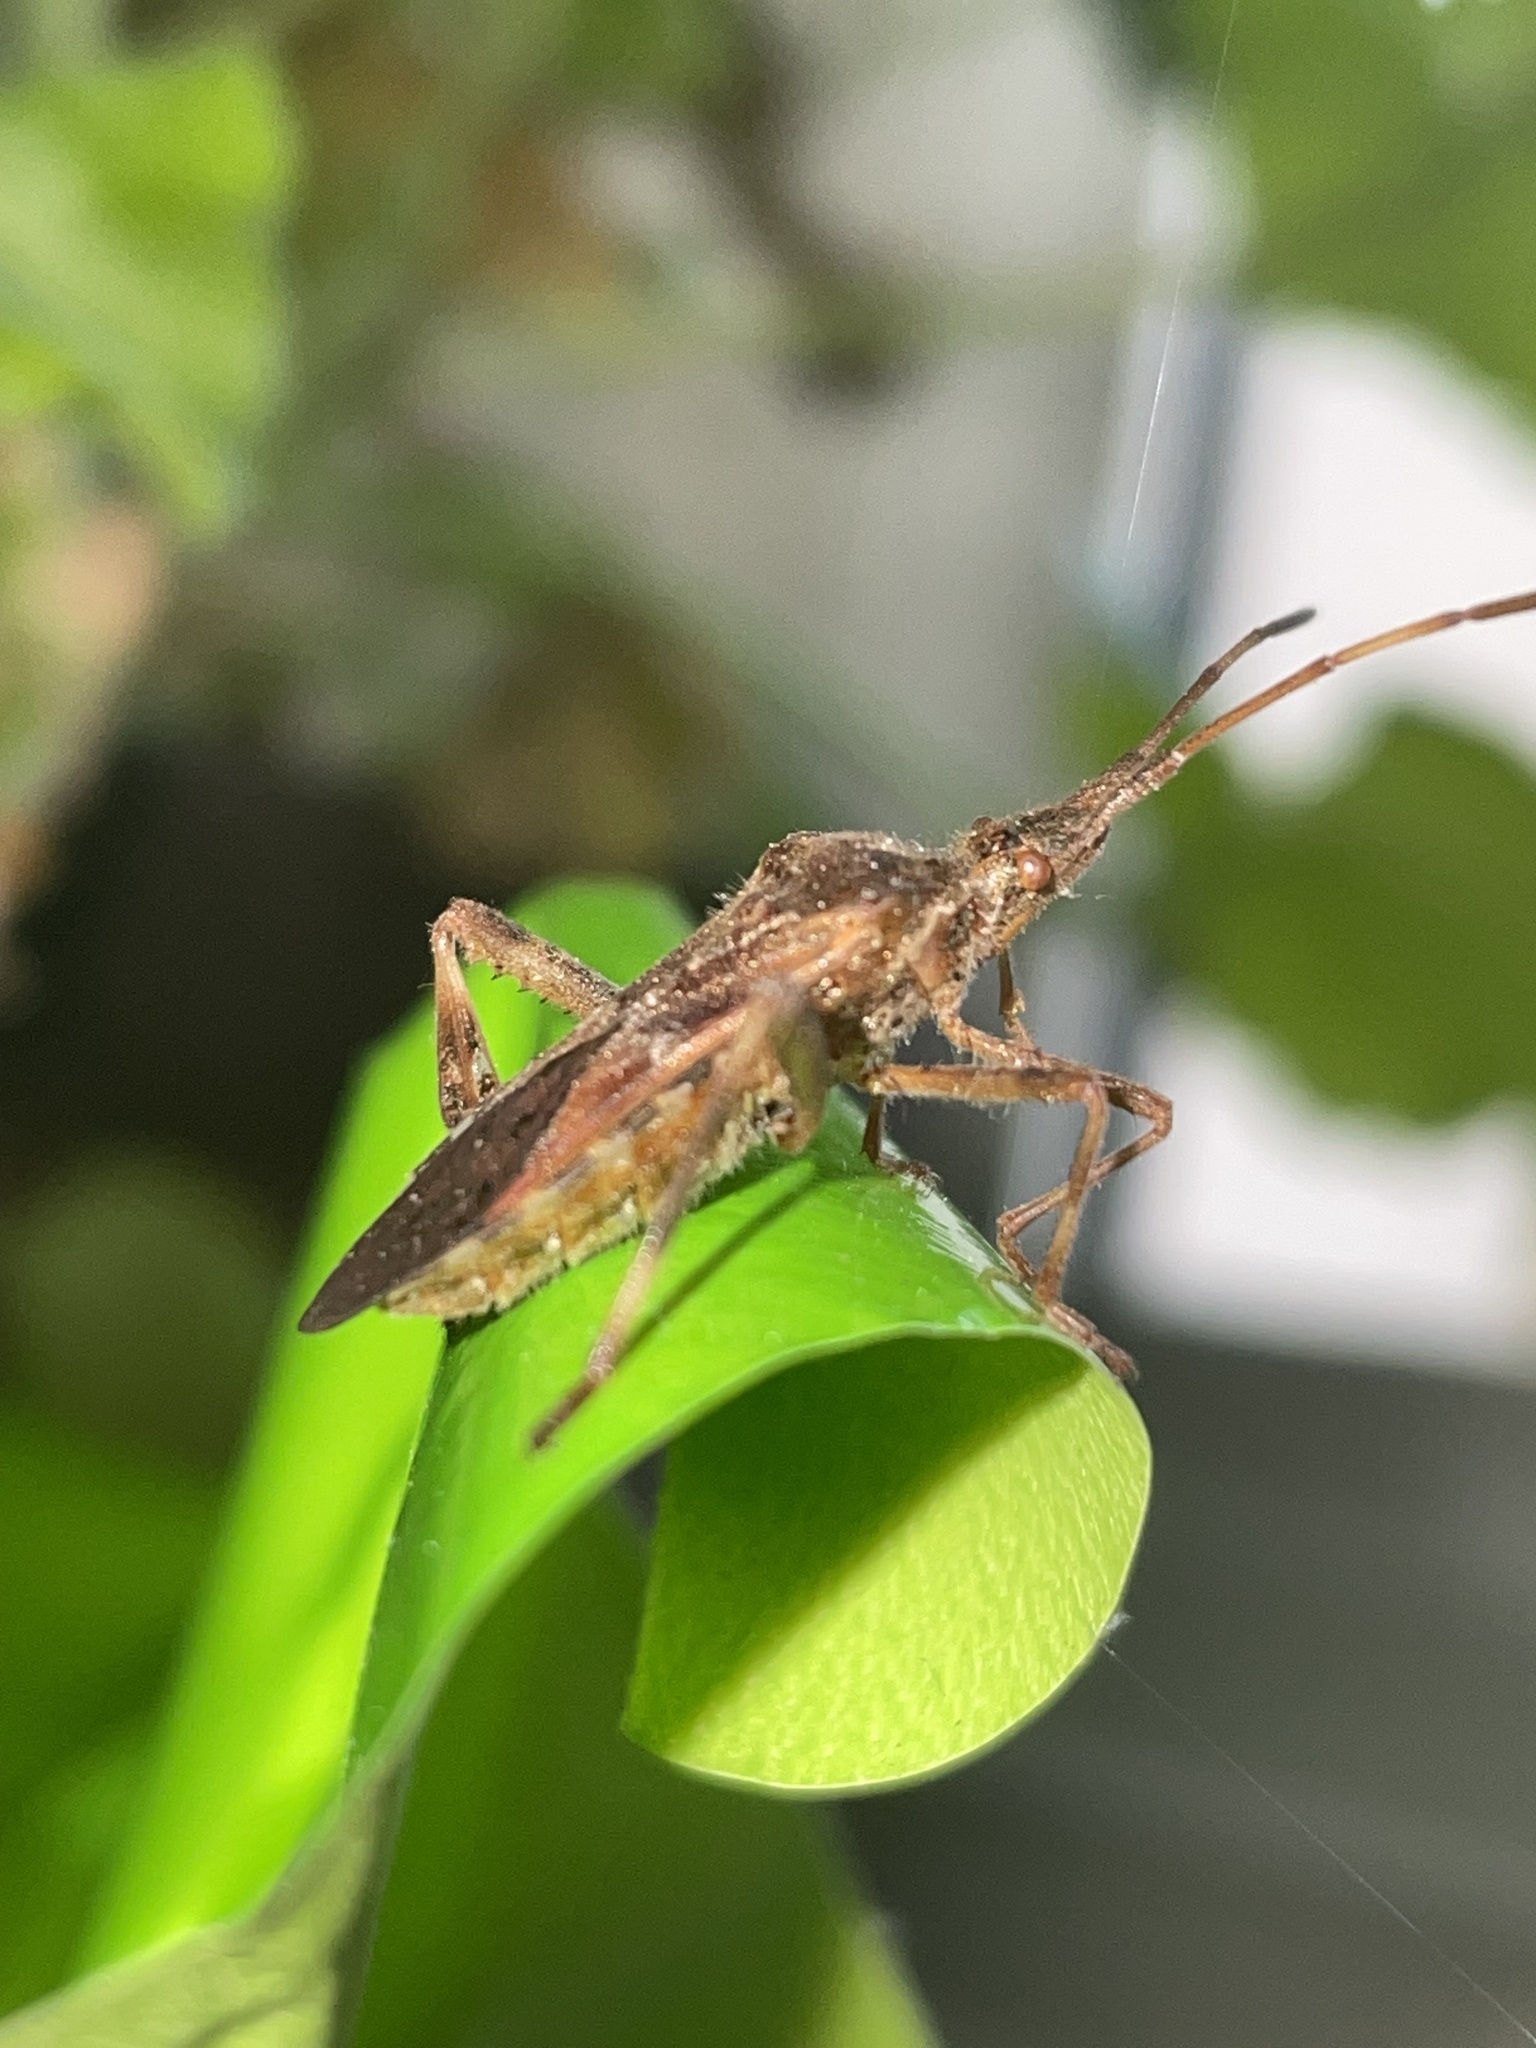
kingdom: Animalia
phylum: Arthropoda
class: Insecta
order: Hemiptera
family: Coreidae
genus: Leptoglossus
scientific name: Leptoglossus occidentalis
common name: Western conifer-seed bug
